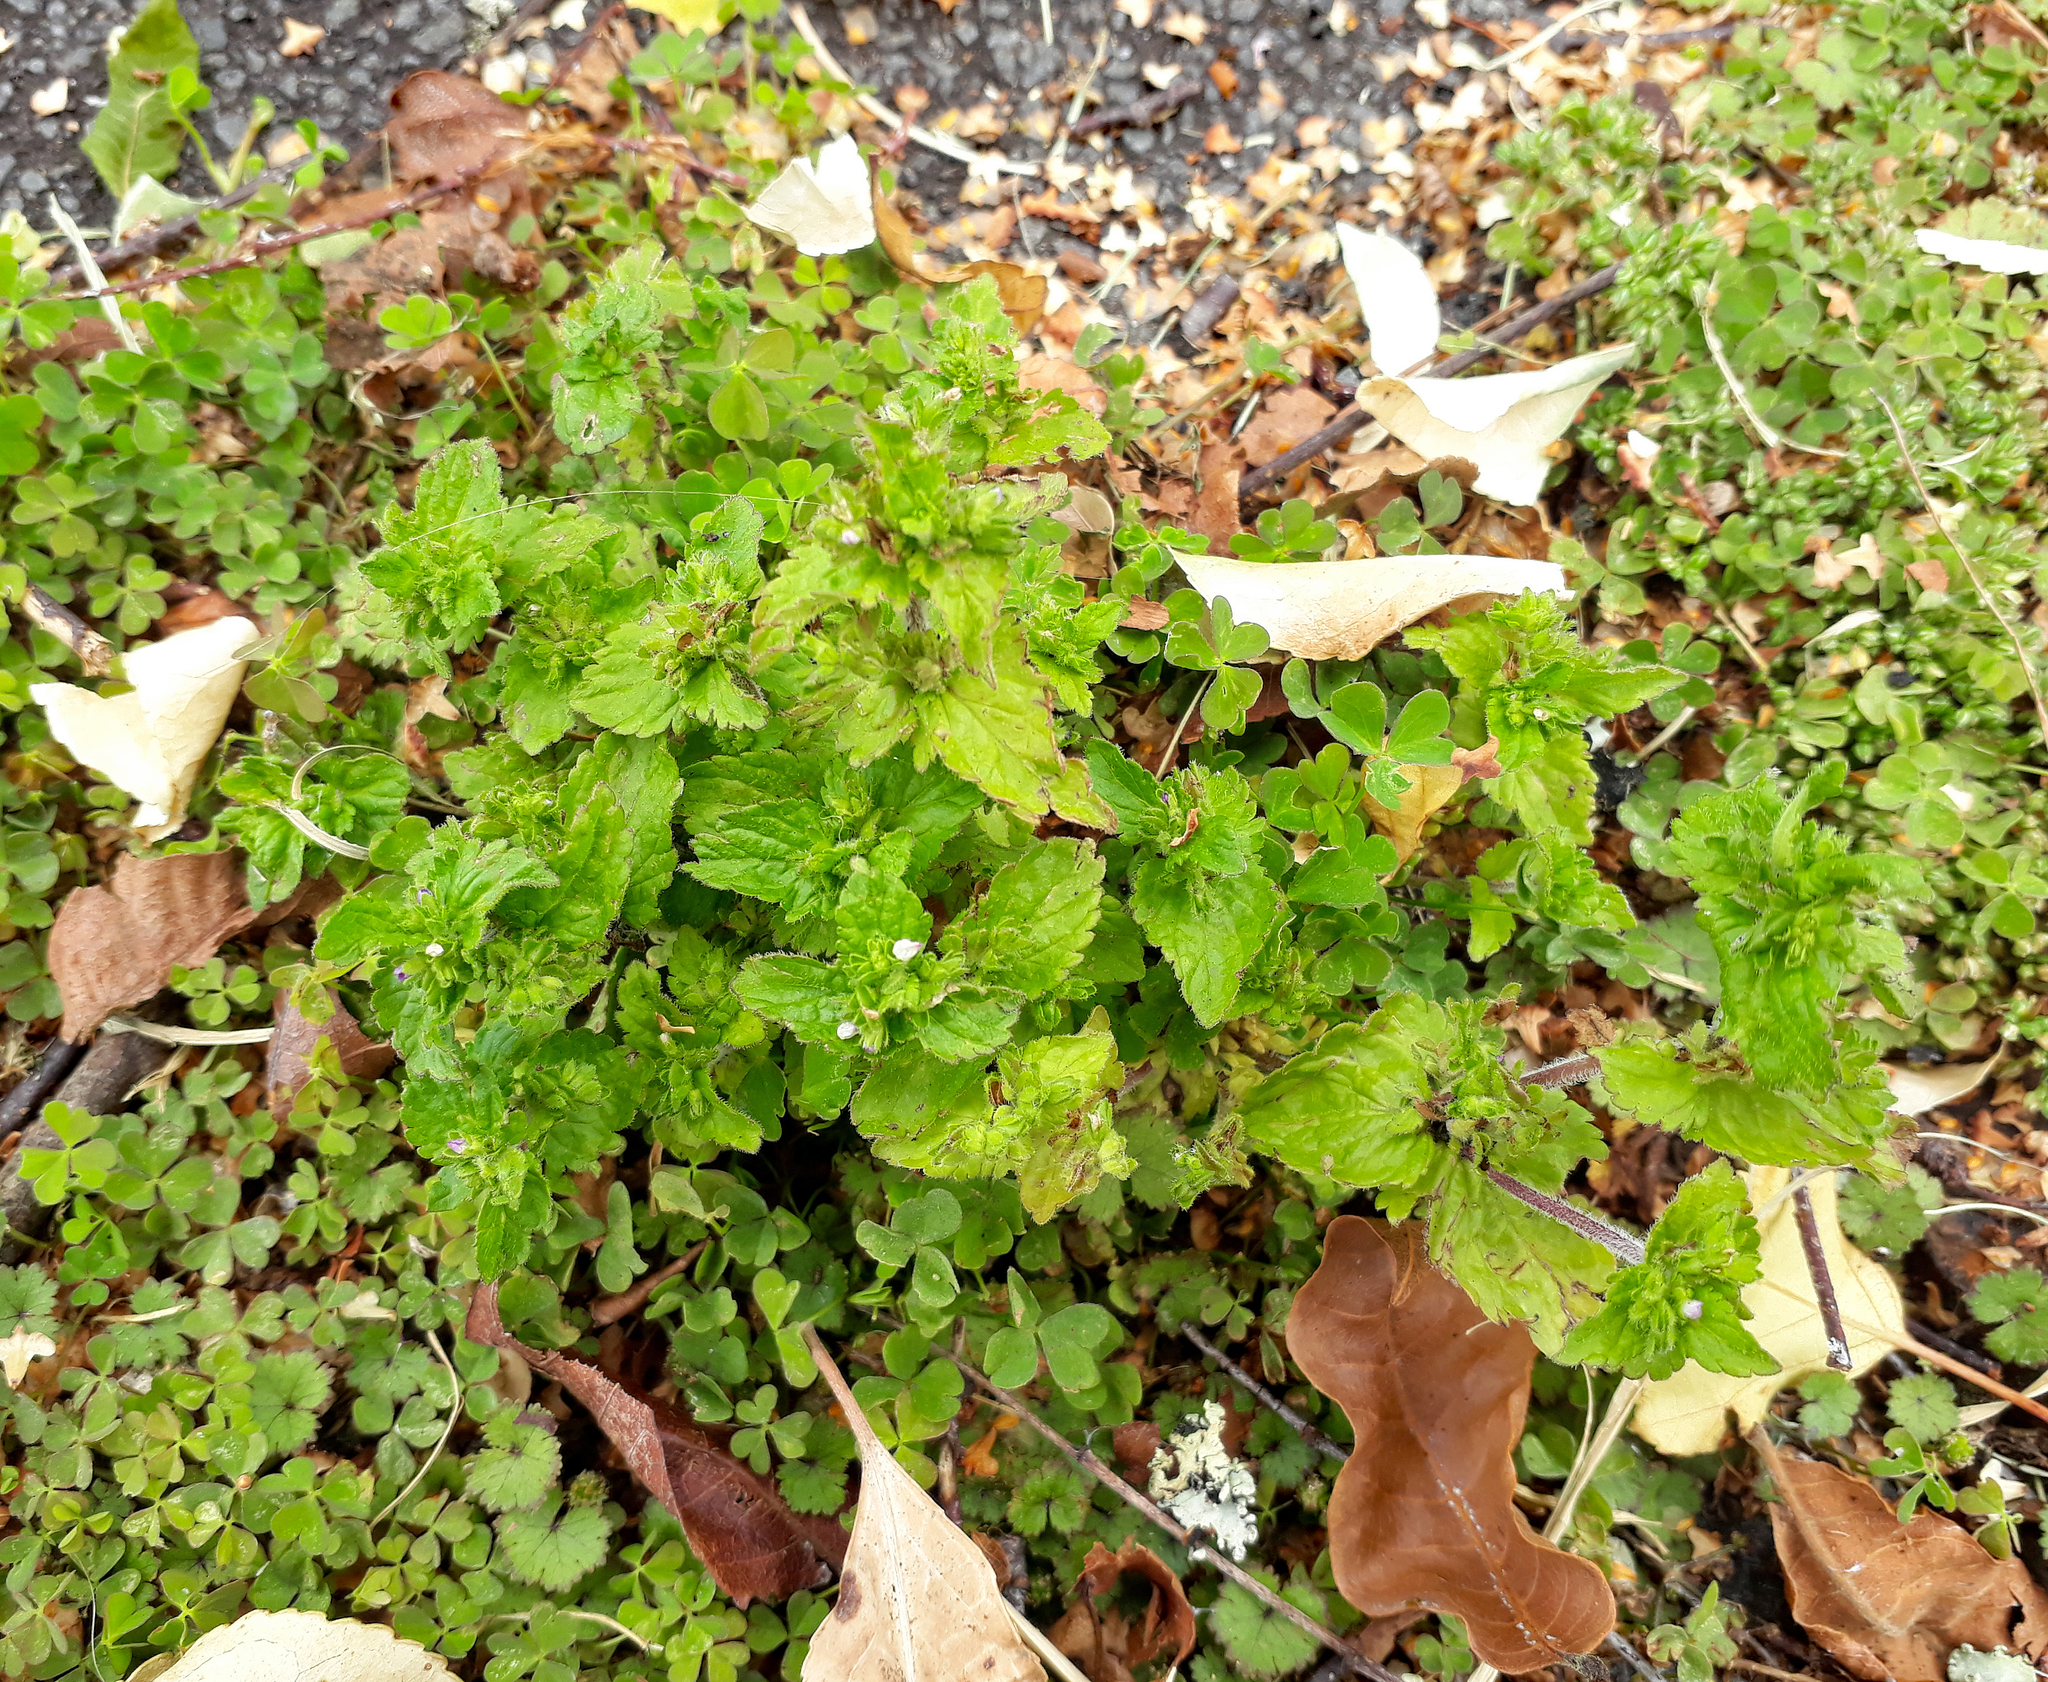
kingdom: Plantae
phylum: Tracheophyta
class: Magnoliopsida
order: Lamiales
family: Plantaginaceae
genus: Veronica
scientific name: Veronica javanica
